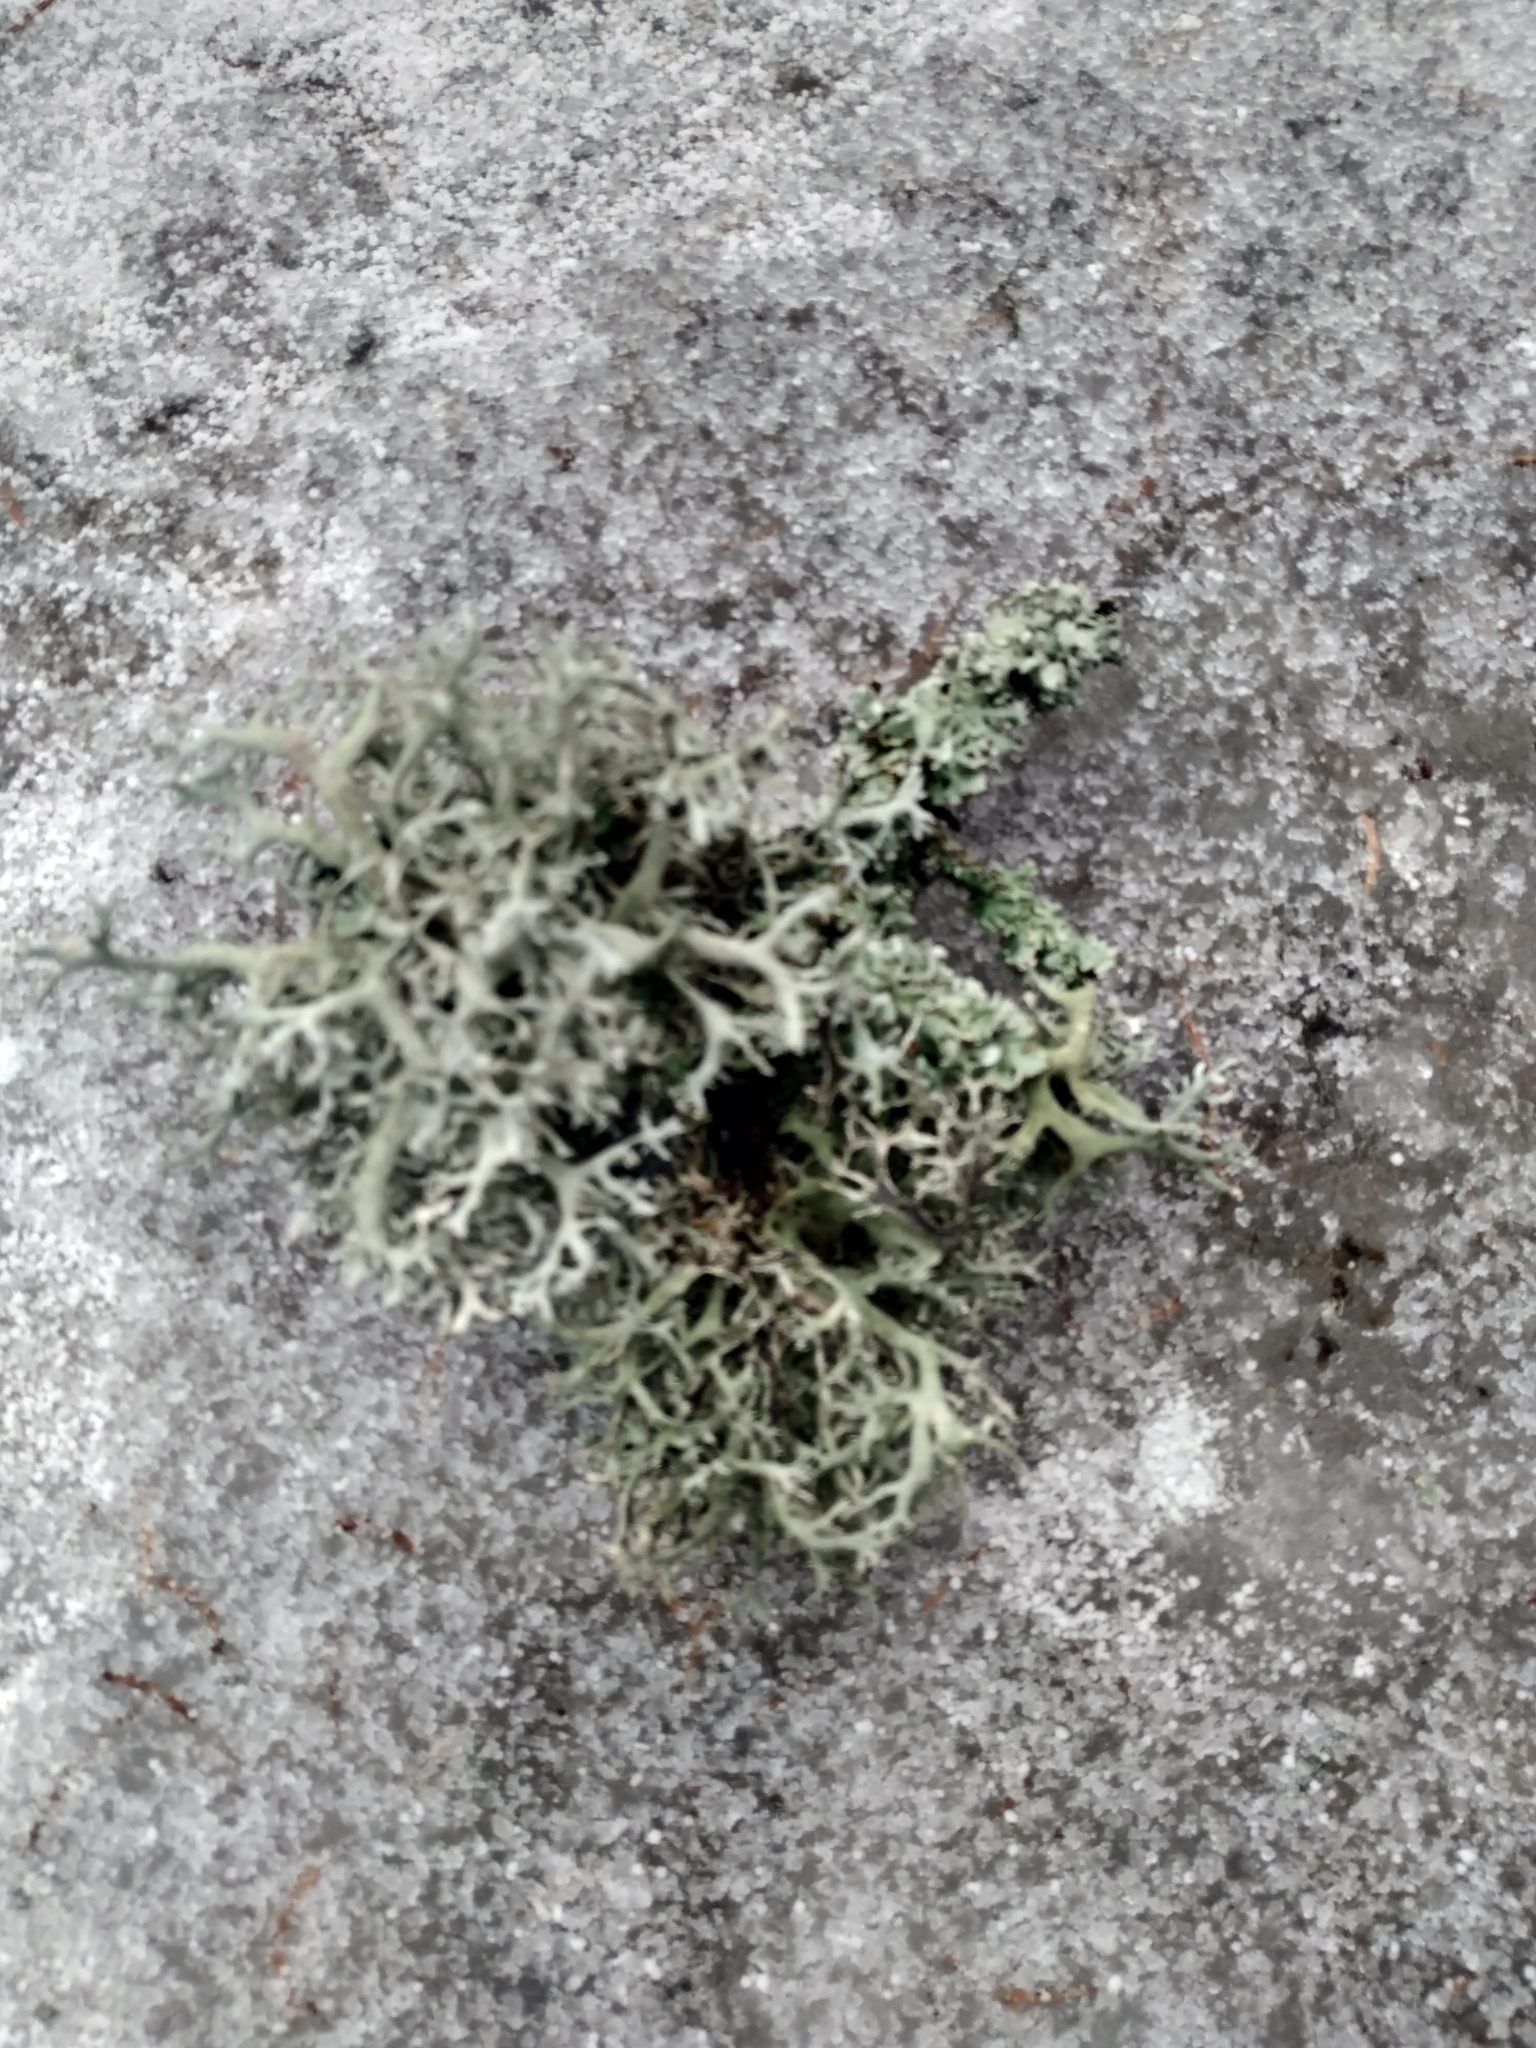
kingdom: Fungi
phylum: Ascomycota
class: Lecanoromycetes
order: Lecanorales
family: Parmeliaceae
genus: Pseudevernia
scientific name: Pseudevernia furfuracea
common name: Tree moss
